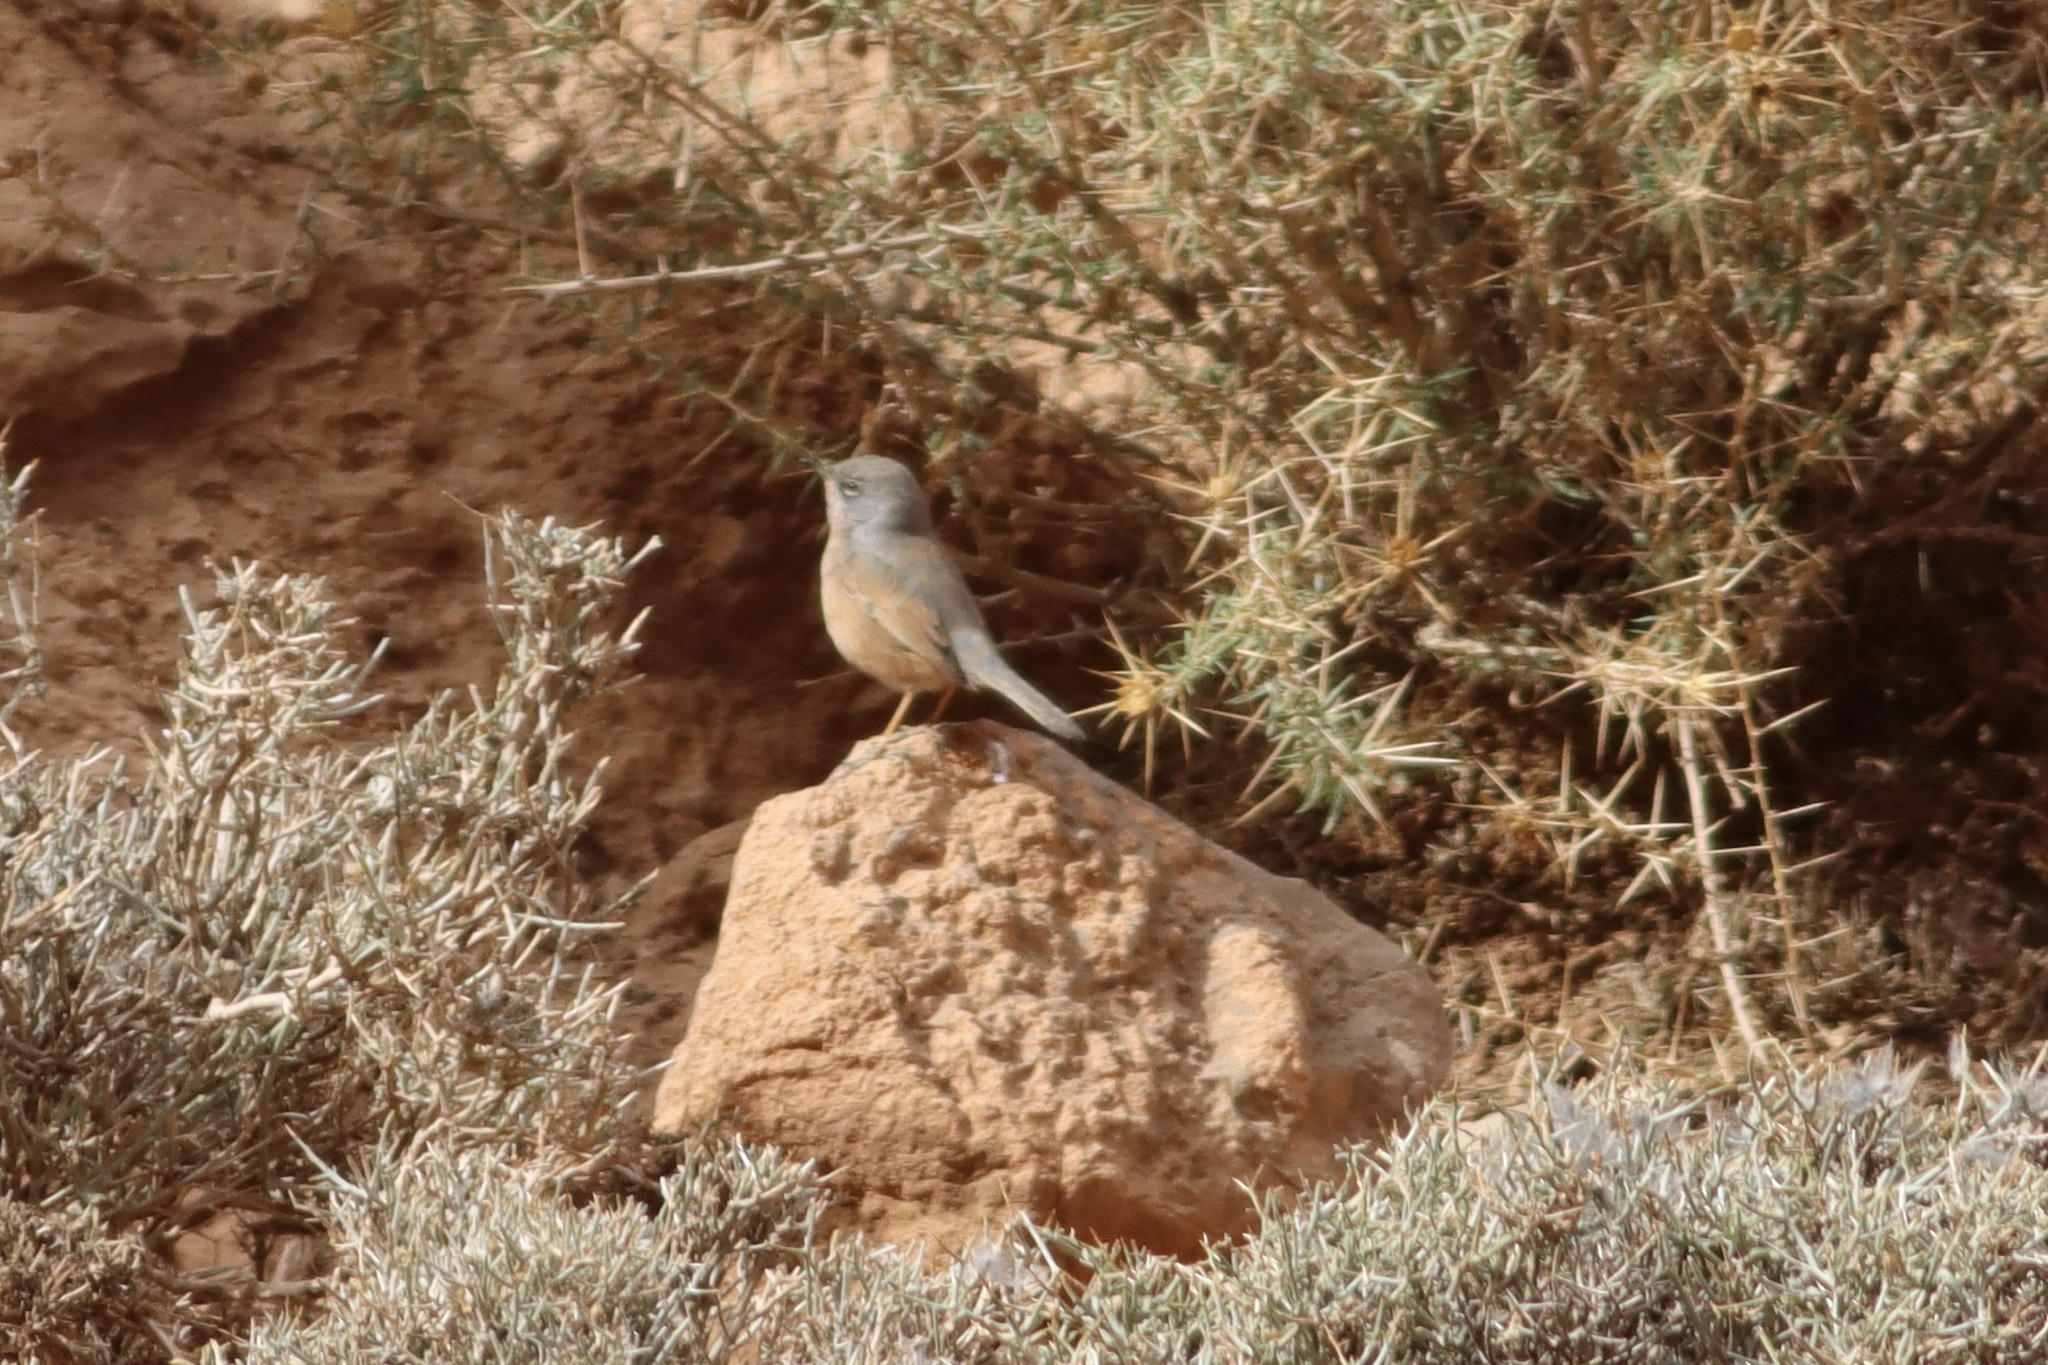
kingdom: Animalia
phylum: Chordata
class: Aves
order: Passeriformes
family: Sylviidae
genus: Sylvia
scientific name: Sylvia deserticola
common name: Tristram's warbler
